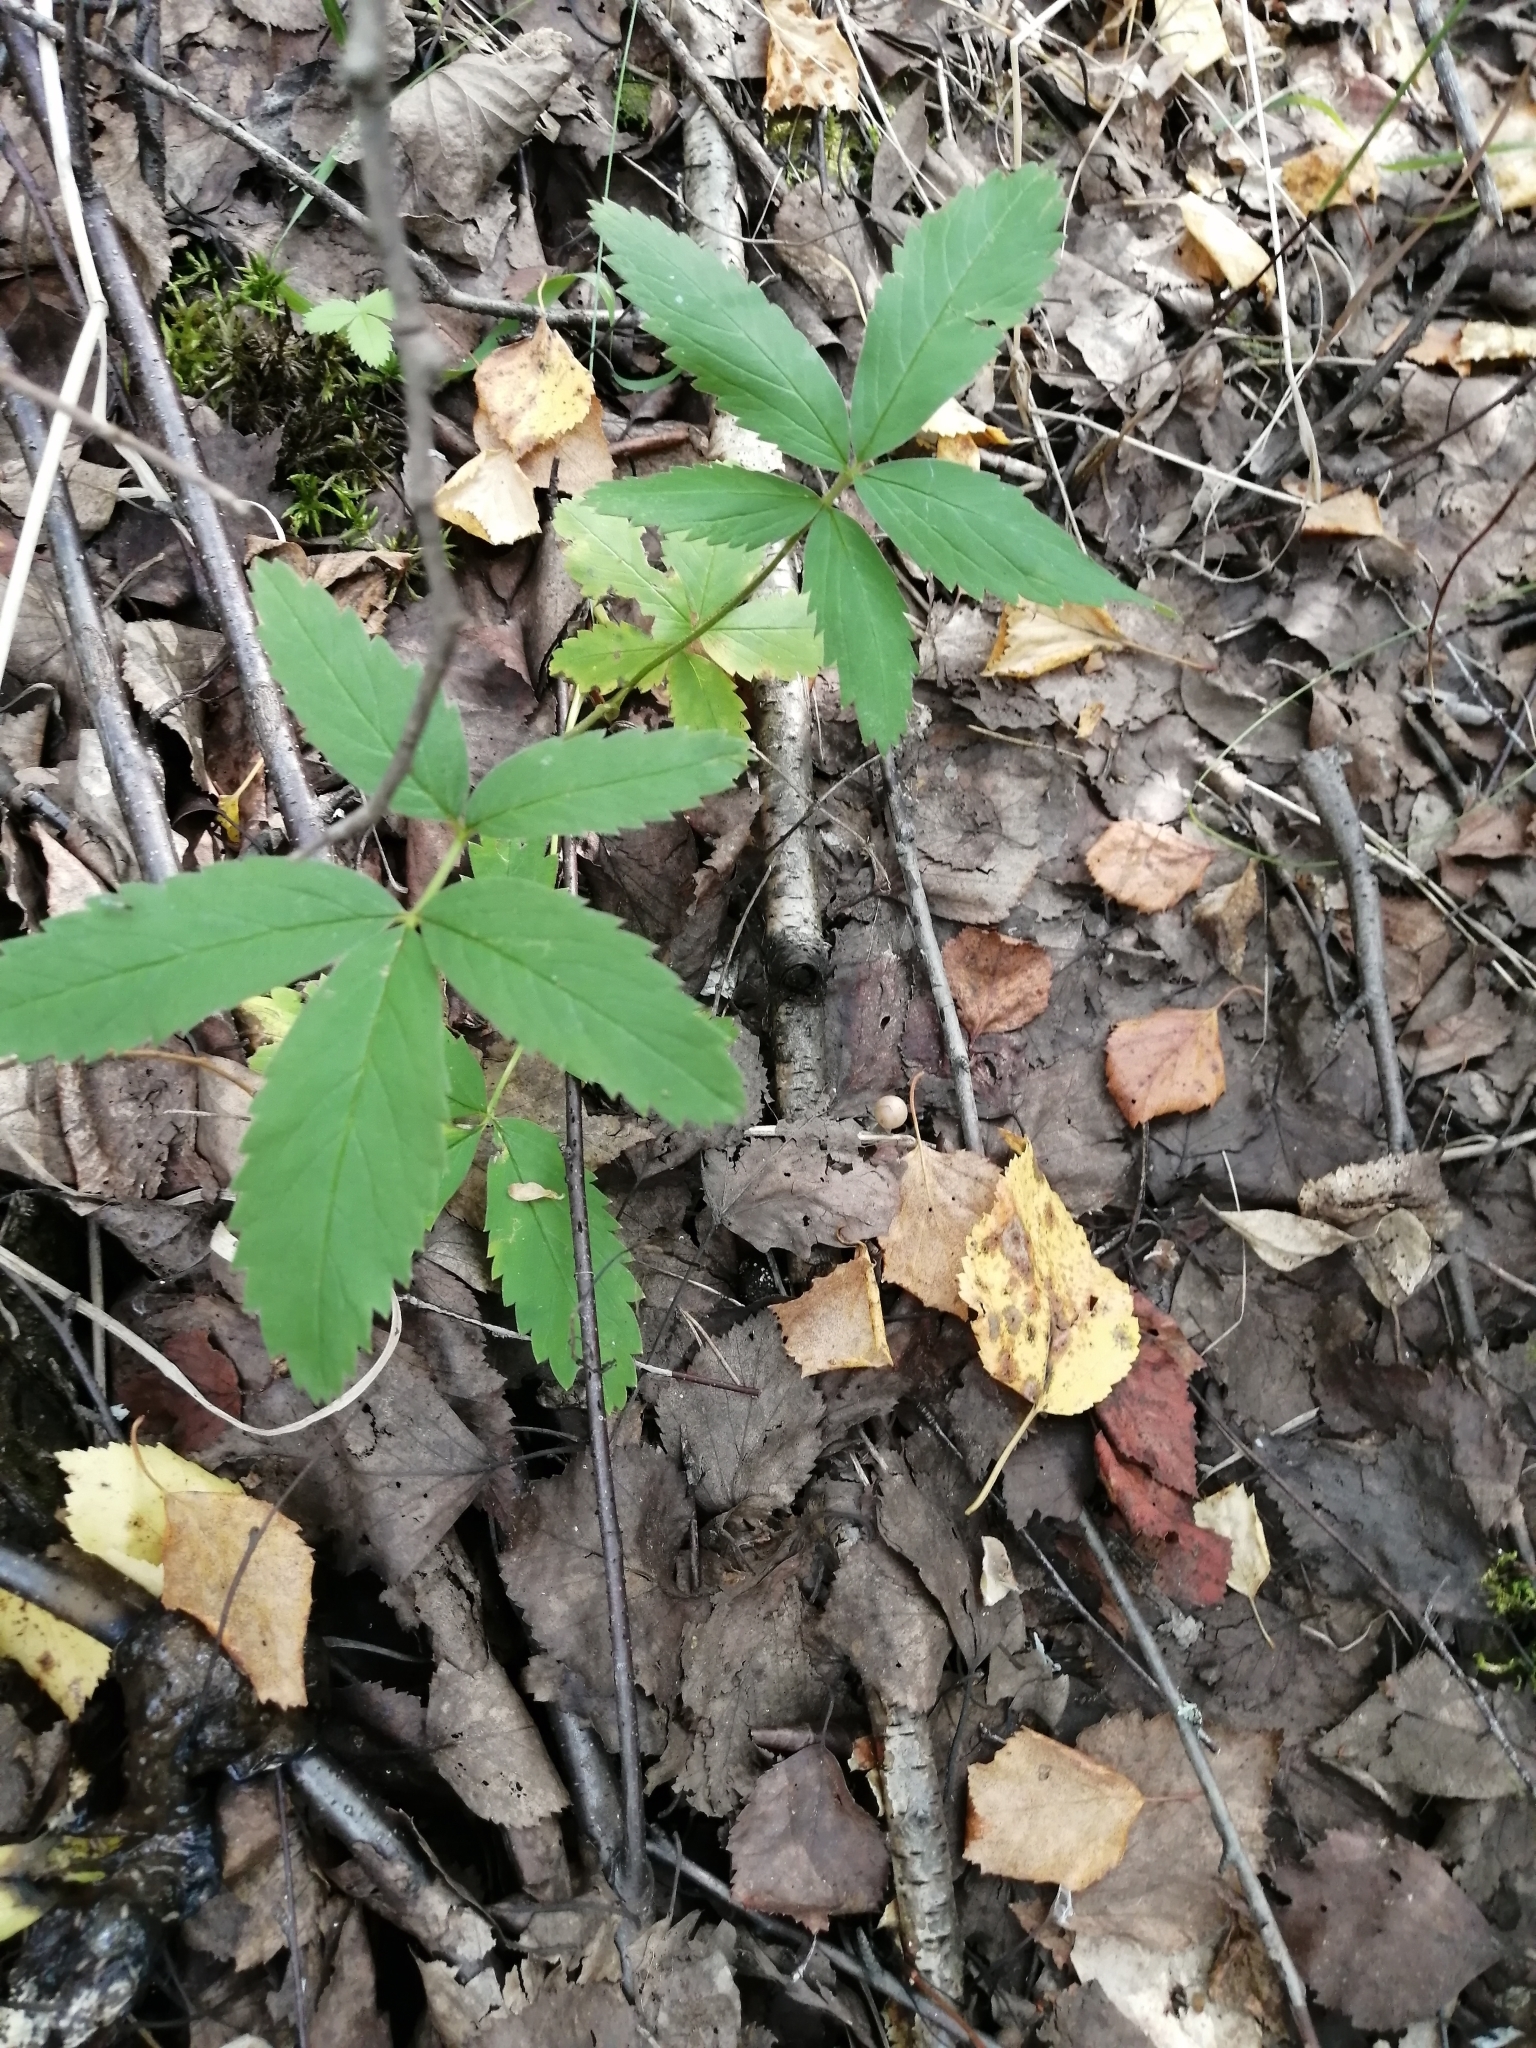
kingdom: Plantae
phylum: Tracheophyta
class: Magnoliopsida
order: Rosales
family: Rosaceae
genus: Comarum
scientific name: Comarum palustre
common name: Marsh cinquefoil
